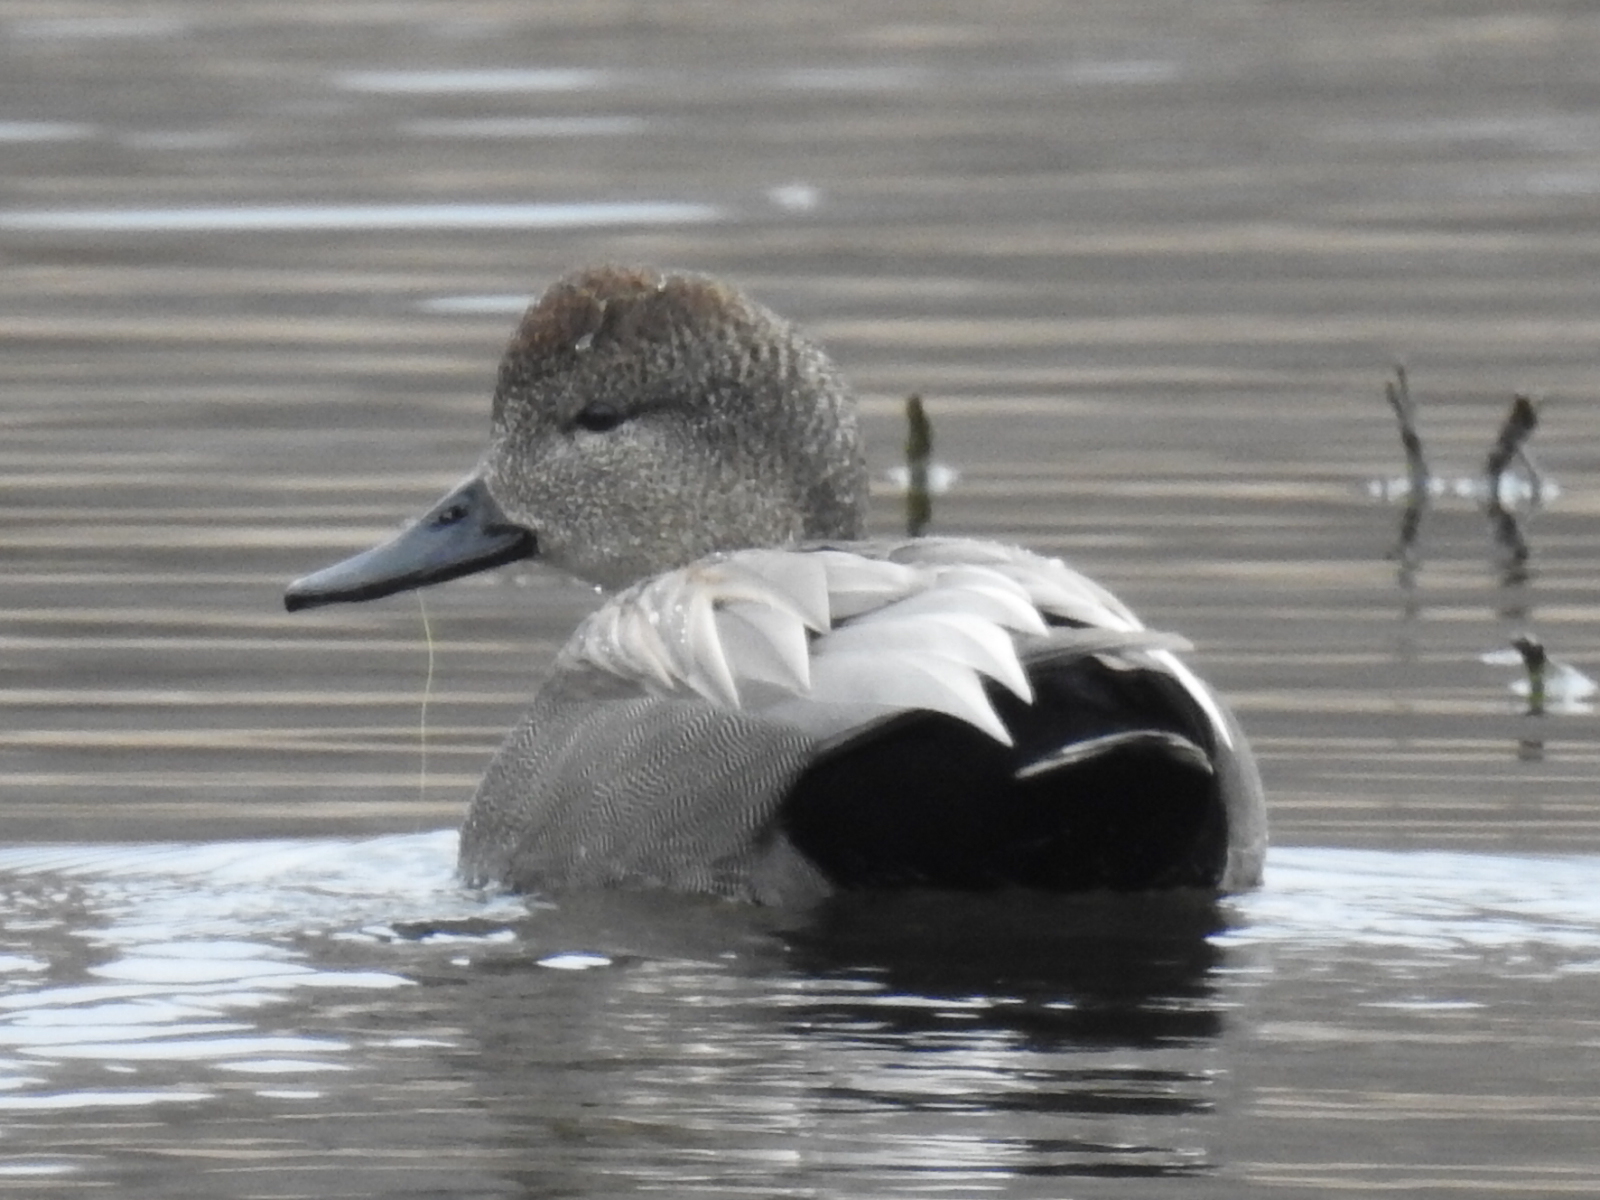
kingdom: Animalia
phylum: Chordata
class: Aves
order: Anseriformes
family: Anatidae
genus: Mareca
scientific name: Mareca strepera
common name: Gadwall
